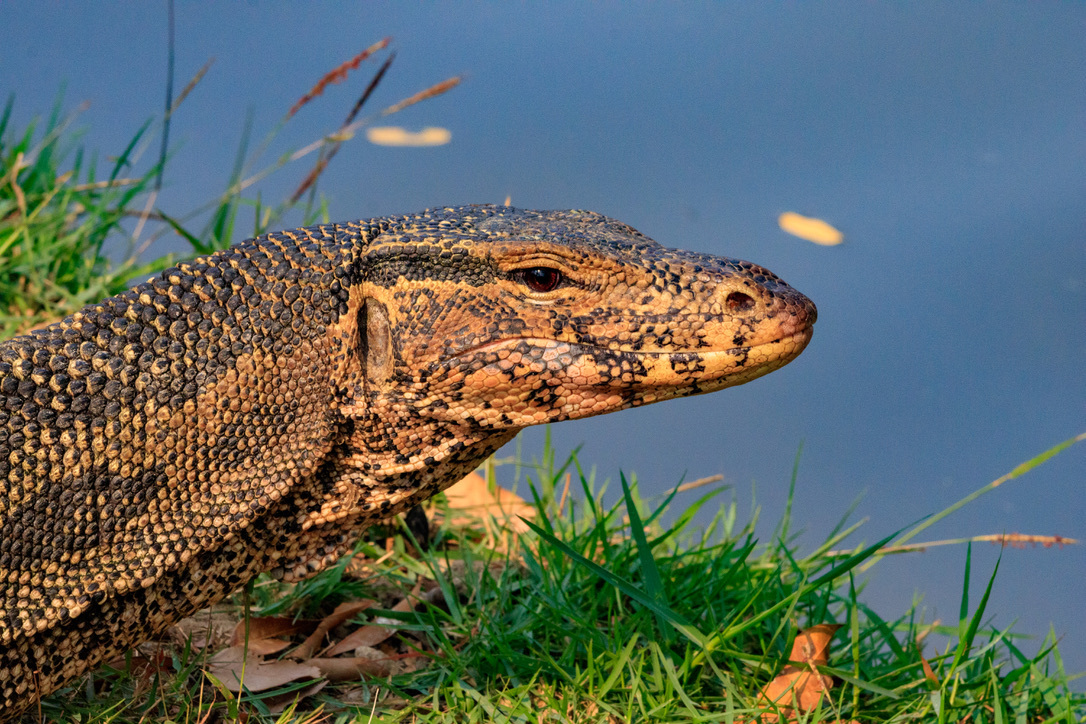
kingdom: Animalia
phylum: Chordata
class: Squamata
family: Varanidae
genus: Varanus
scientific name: Varanus salvator
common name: Common water monitor
